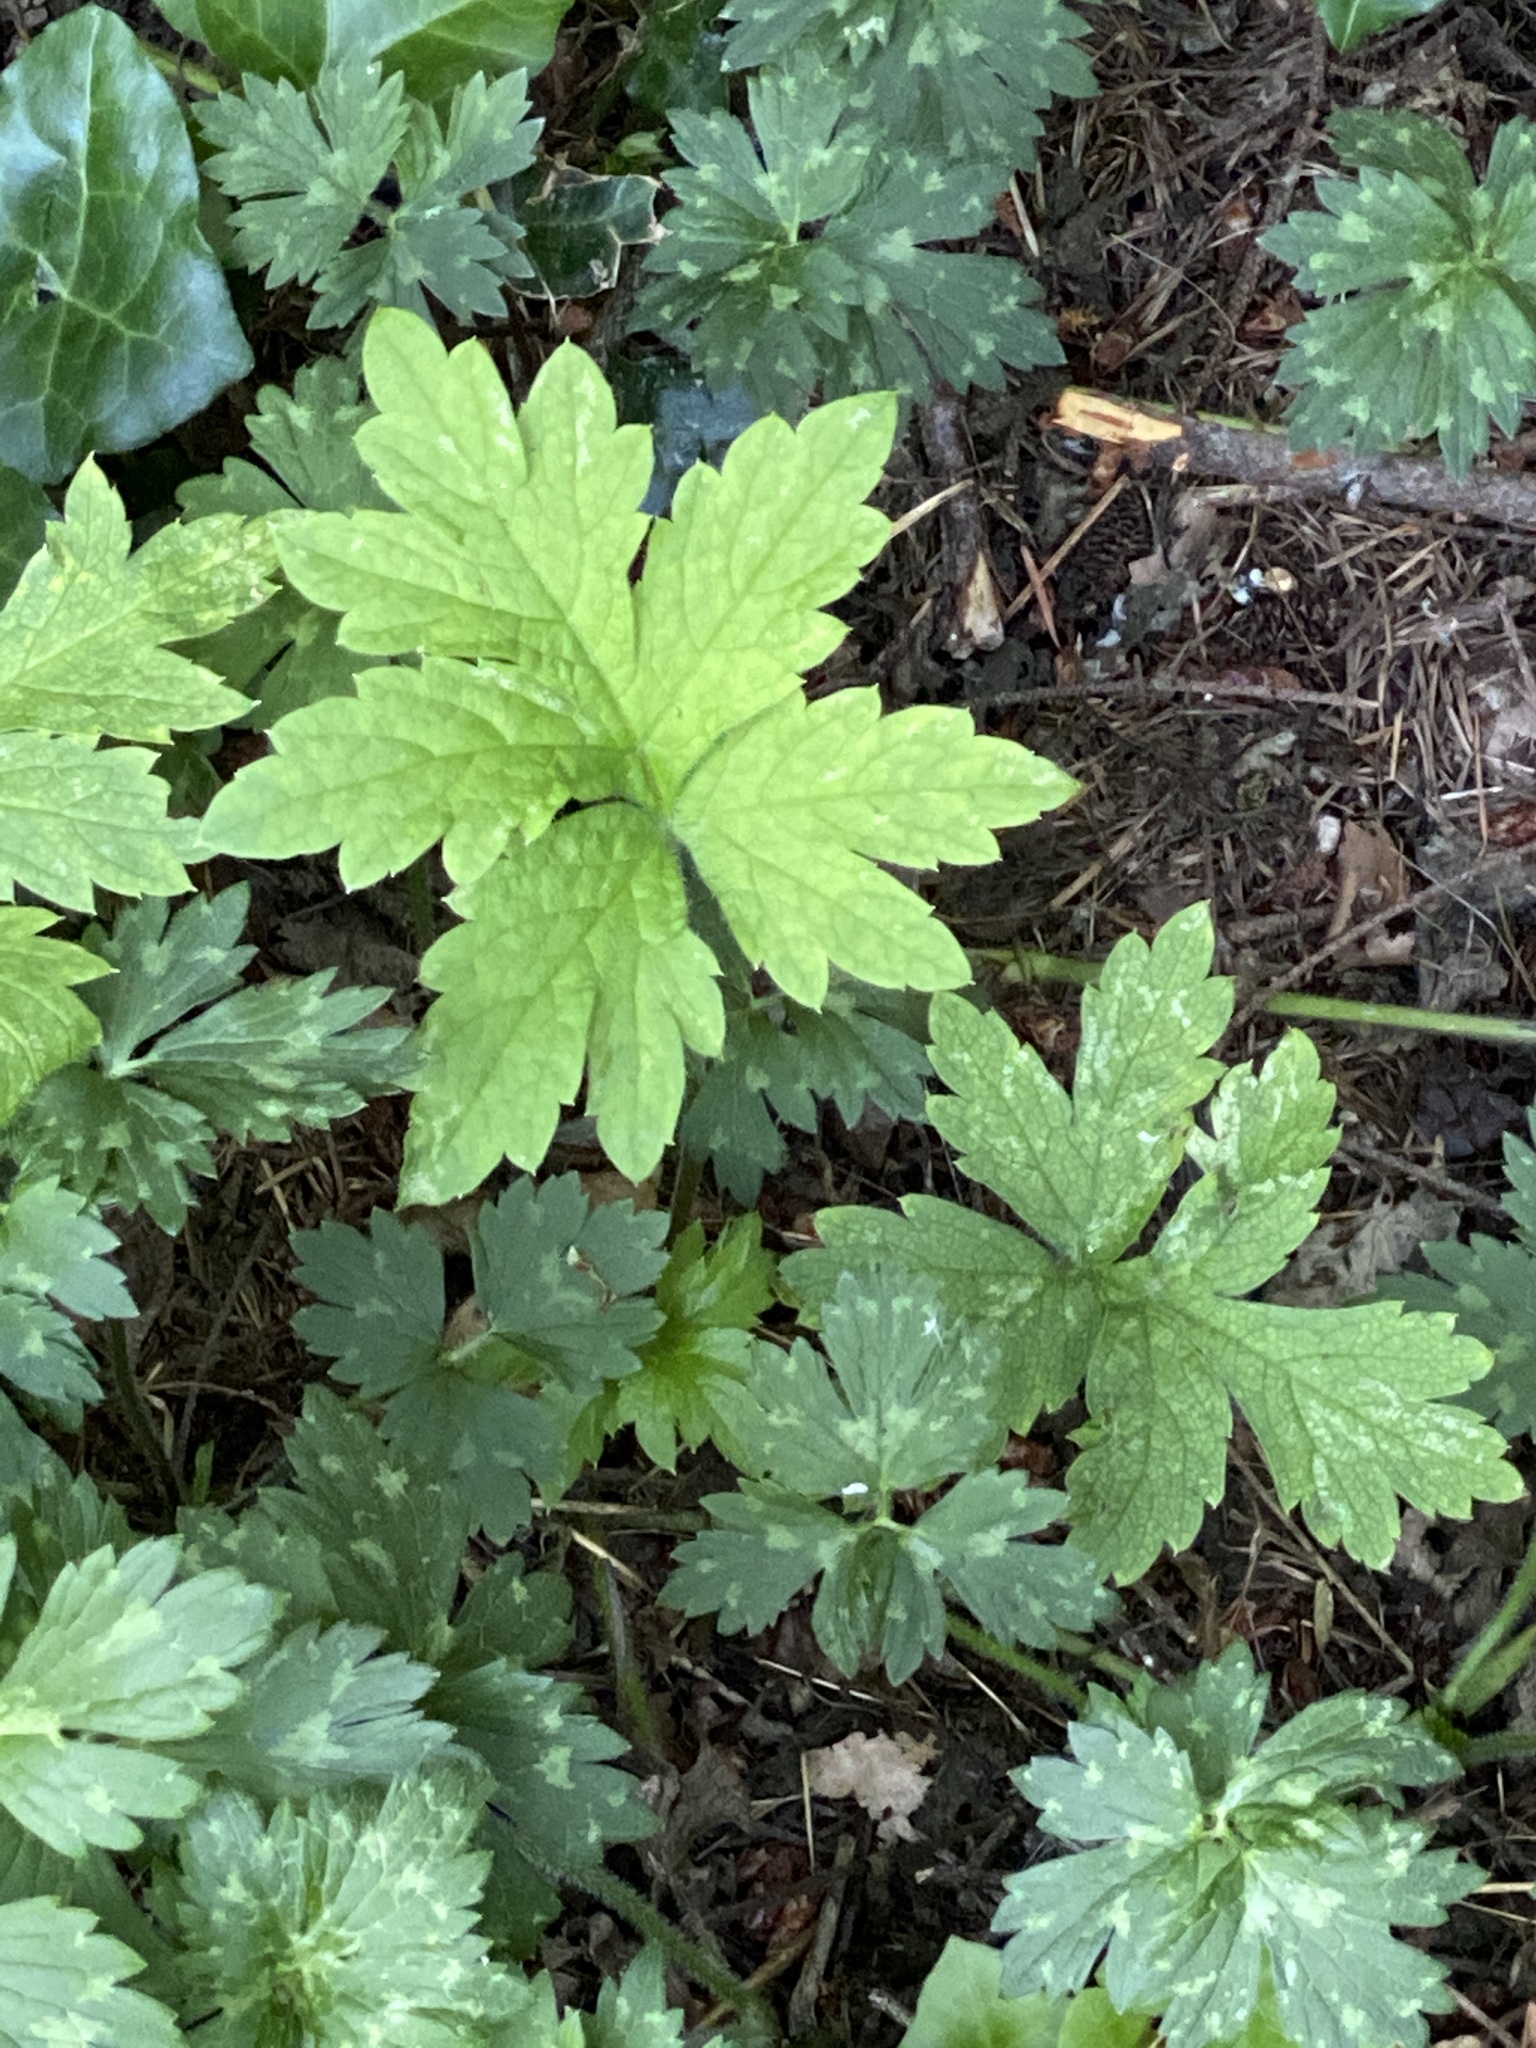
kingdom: Plantae
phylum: Tracheophyta
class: Magnoliopsida
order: Boraginales
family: Hydrophyllaceae
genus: Hydrophyllum
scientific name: Hydrophyllum tenuipes
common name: Pacific waterleaf
